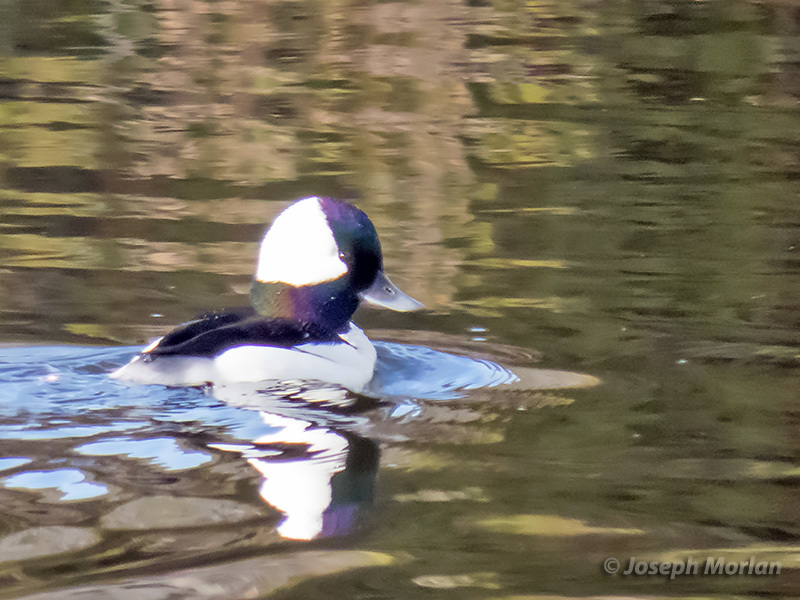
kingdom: Animalia
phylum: Chordata
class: Aves
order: Anseriformes
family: Anatidae
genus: Bucephala
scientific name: Bucephala albeola
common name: Bufflehead
